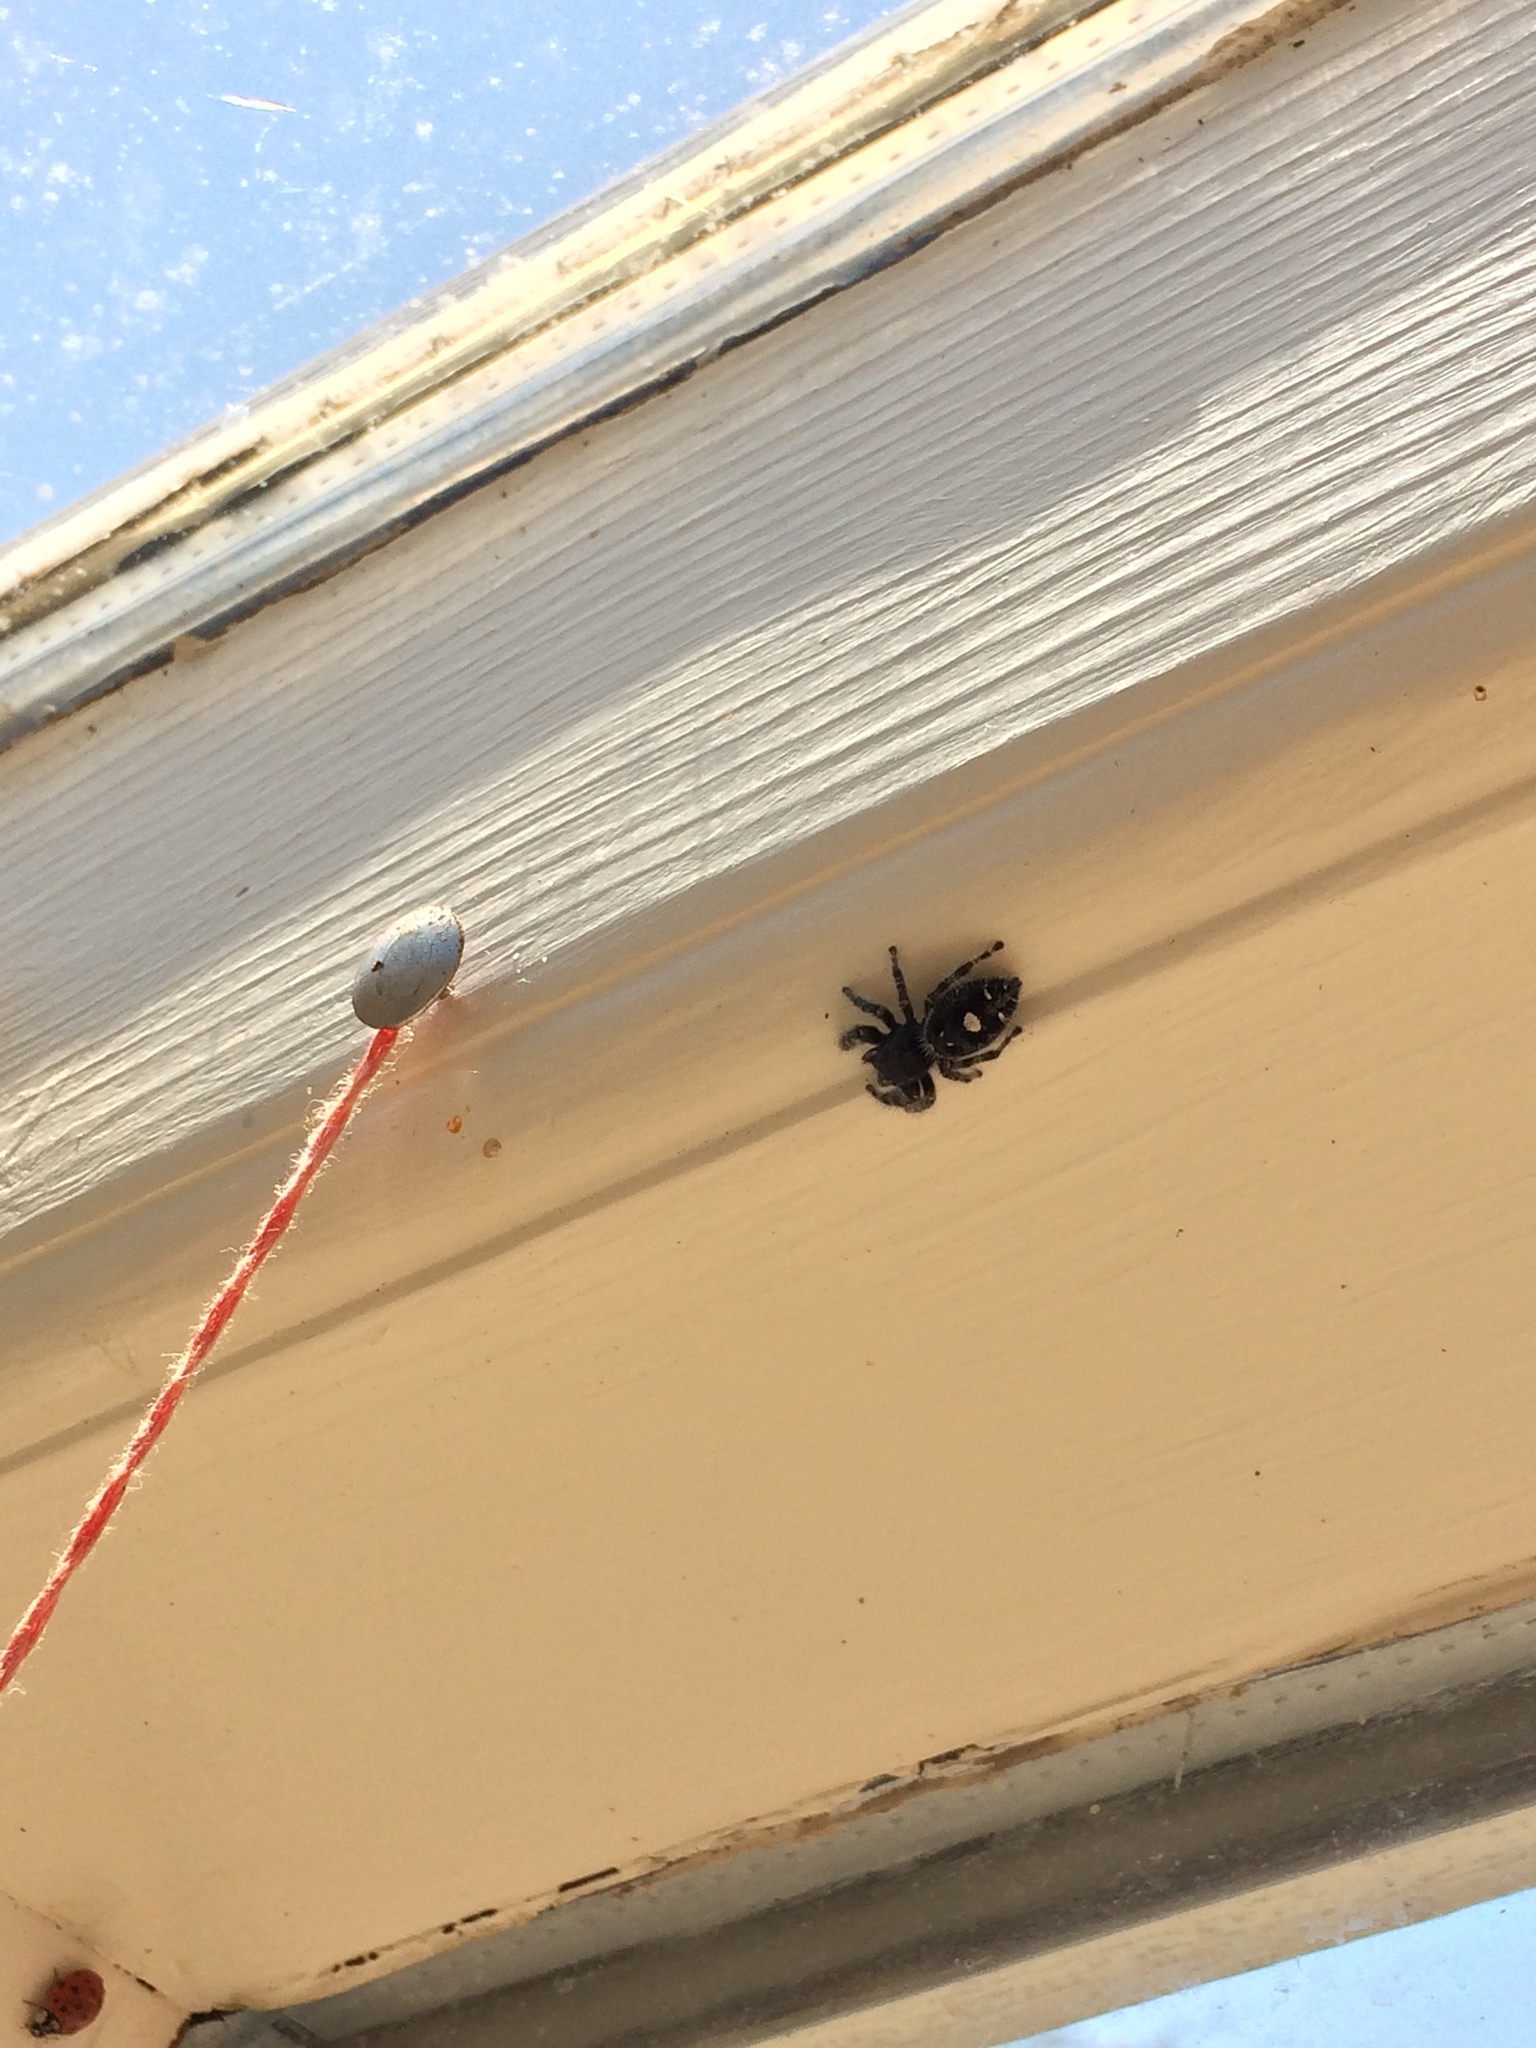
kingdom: Animalia
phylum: Arthropoda
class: Arachnida
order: Araneae
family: Salticidae
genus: Phidippus
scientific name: Phidippus audax
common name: Bold jumper
